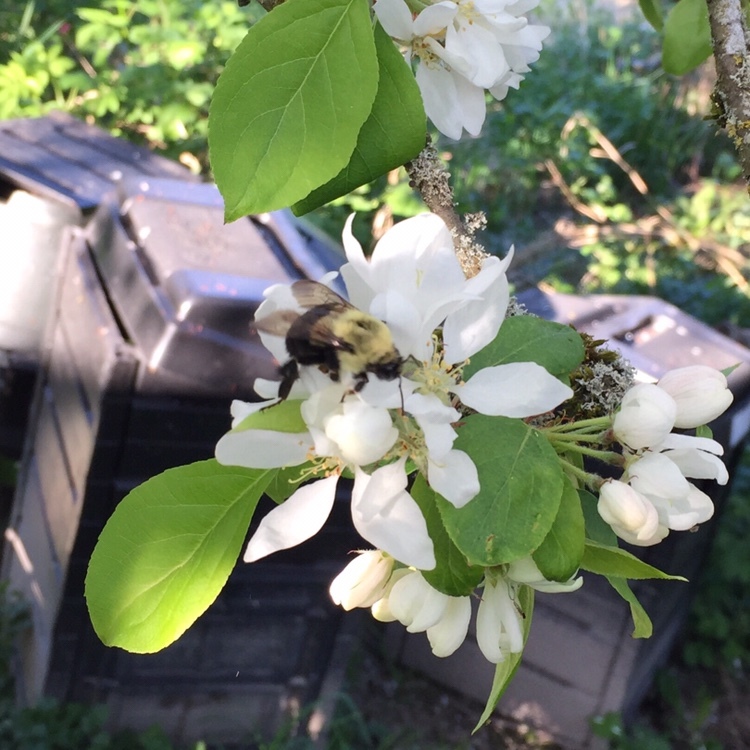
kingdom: Animalia
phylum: Arthropoda
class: Insecta
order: Hymenoptera
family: Apidae
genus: Bombus
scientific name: Bombus impatiens
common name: Common eastern bumble bee
